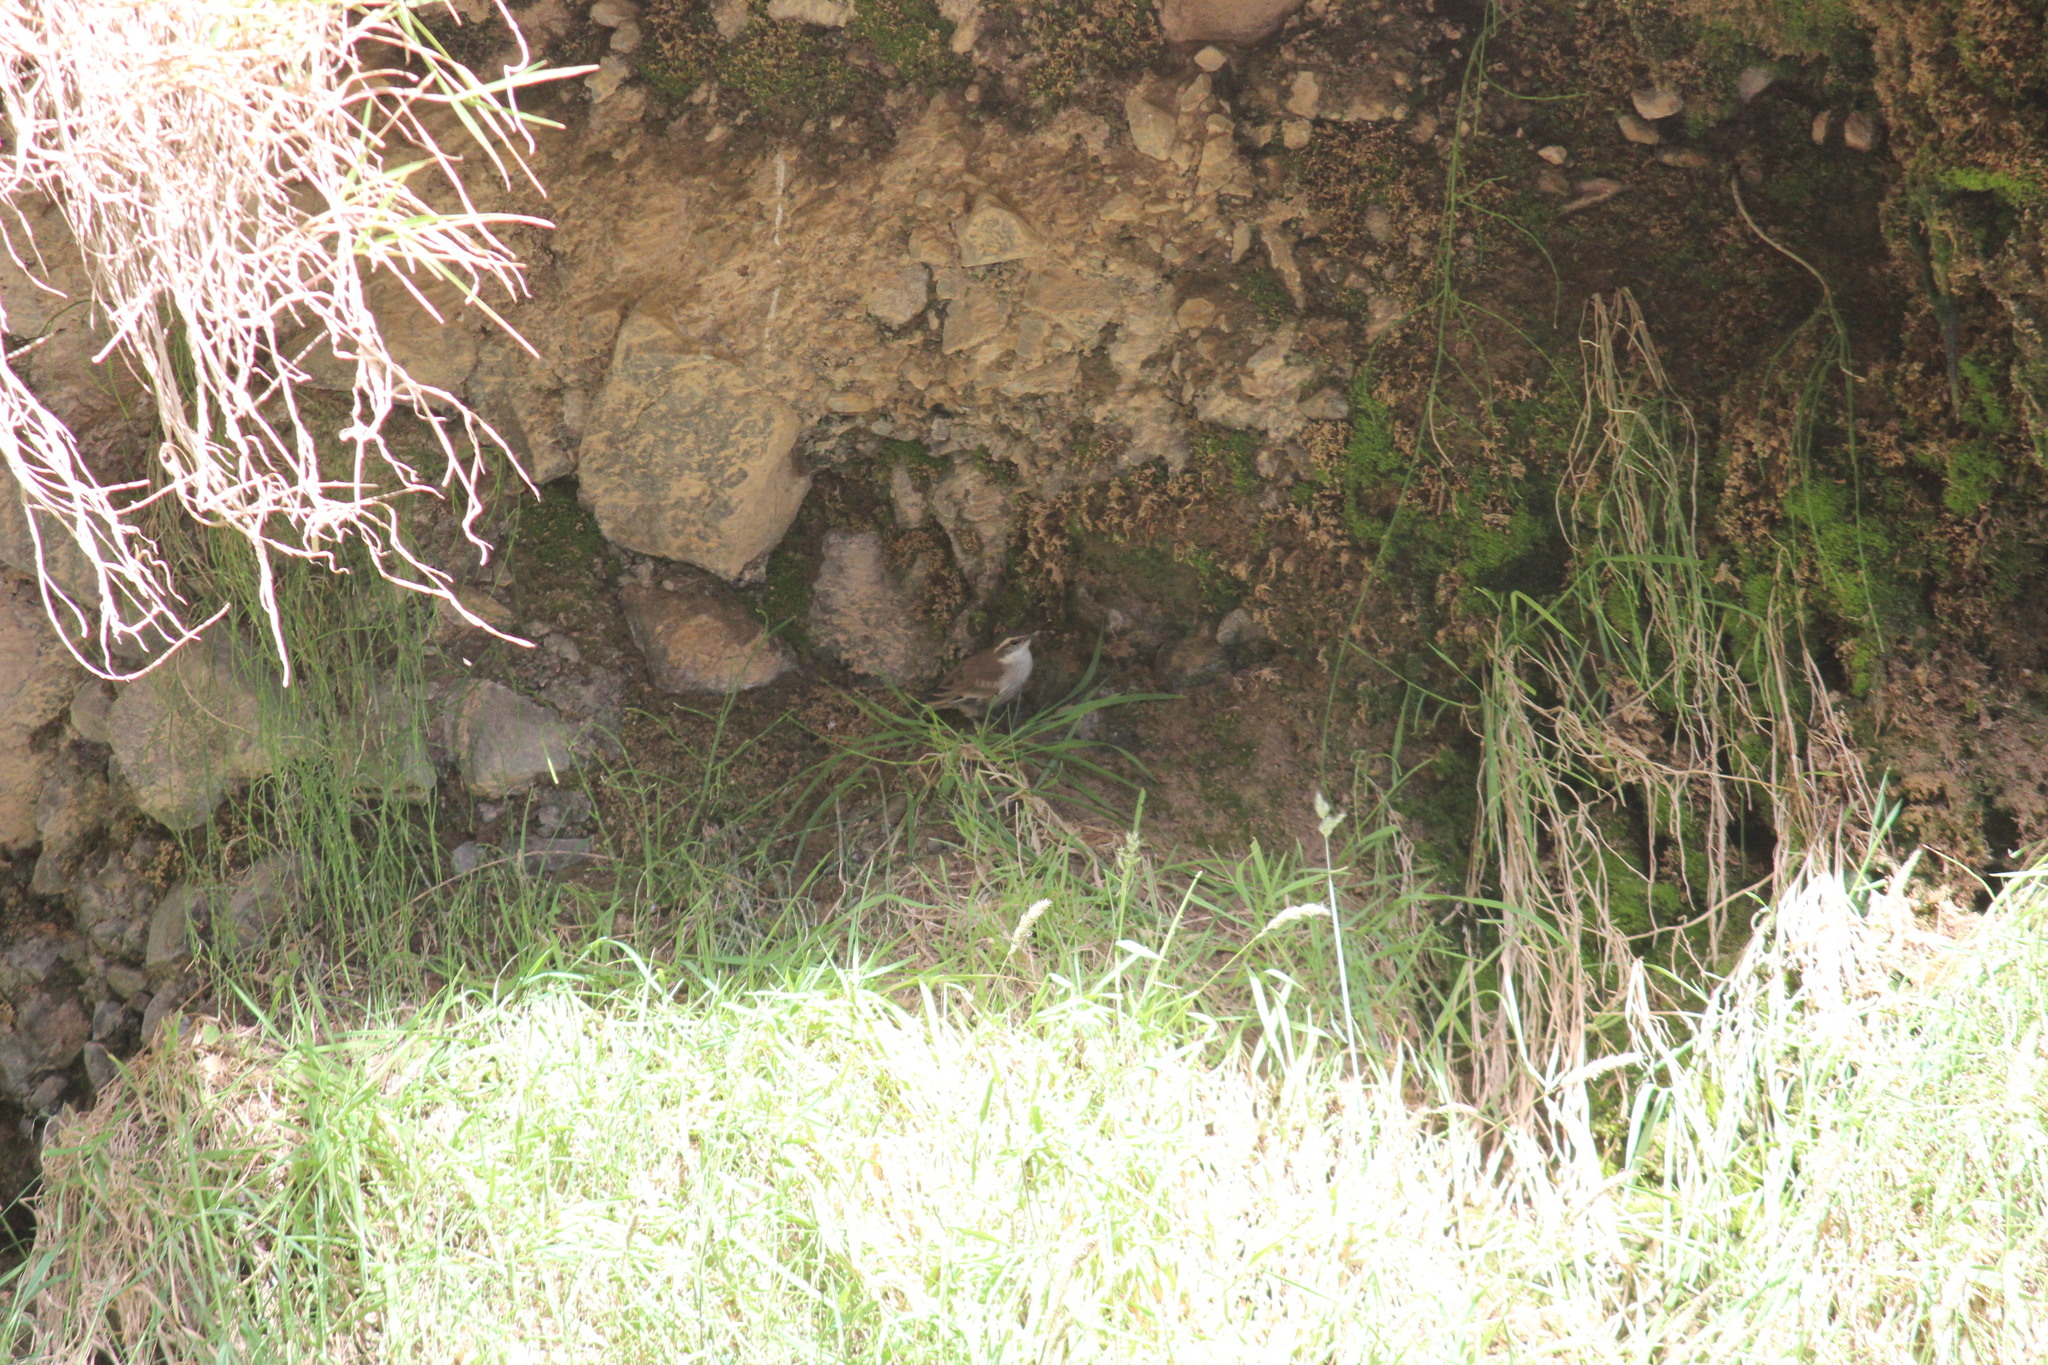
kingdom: Animalia
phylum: Chordata
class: Aves
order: Passeriformes
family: Furnariidae
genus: Cinclodes
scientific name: Cinclodes fuscus
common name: Buff-winged cinclodes
